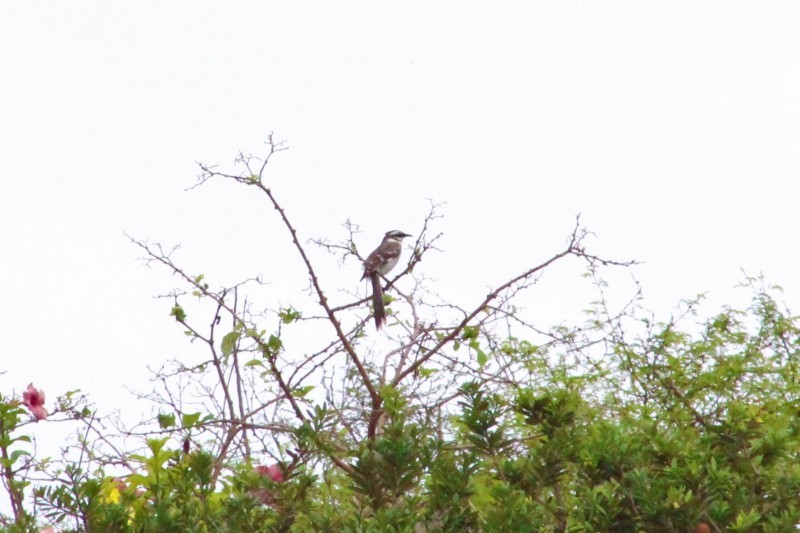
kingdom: Animalia
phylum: Chordata
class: Aves
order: Passeriformes
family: Mimidae
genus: Mimus
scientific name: Mimus longicaudatus
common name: Long-tailed mockingbird
